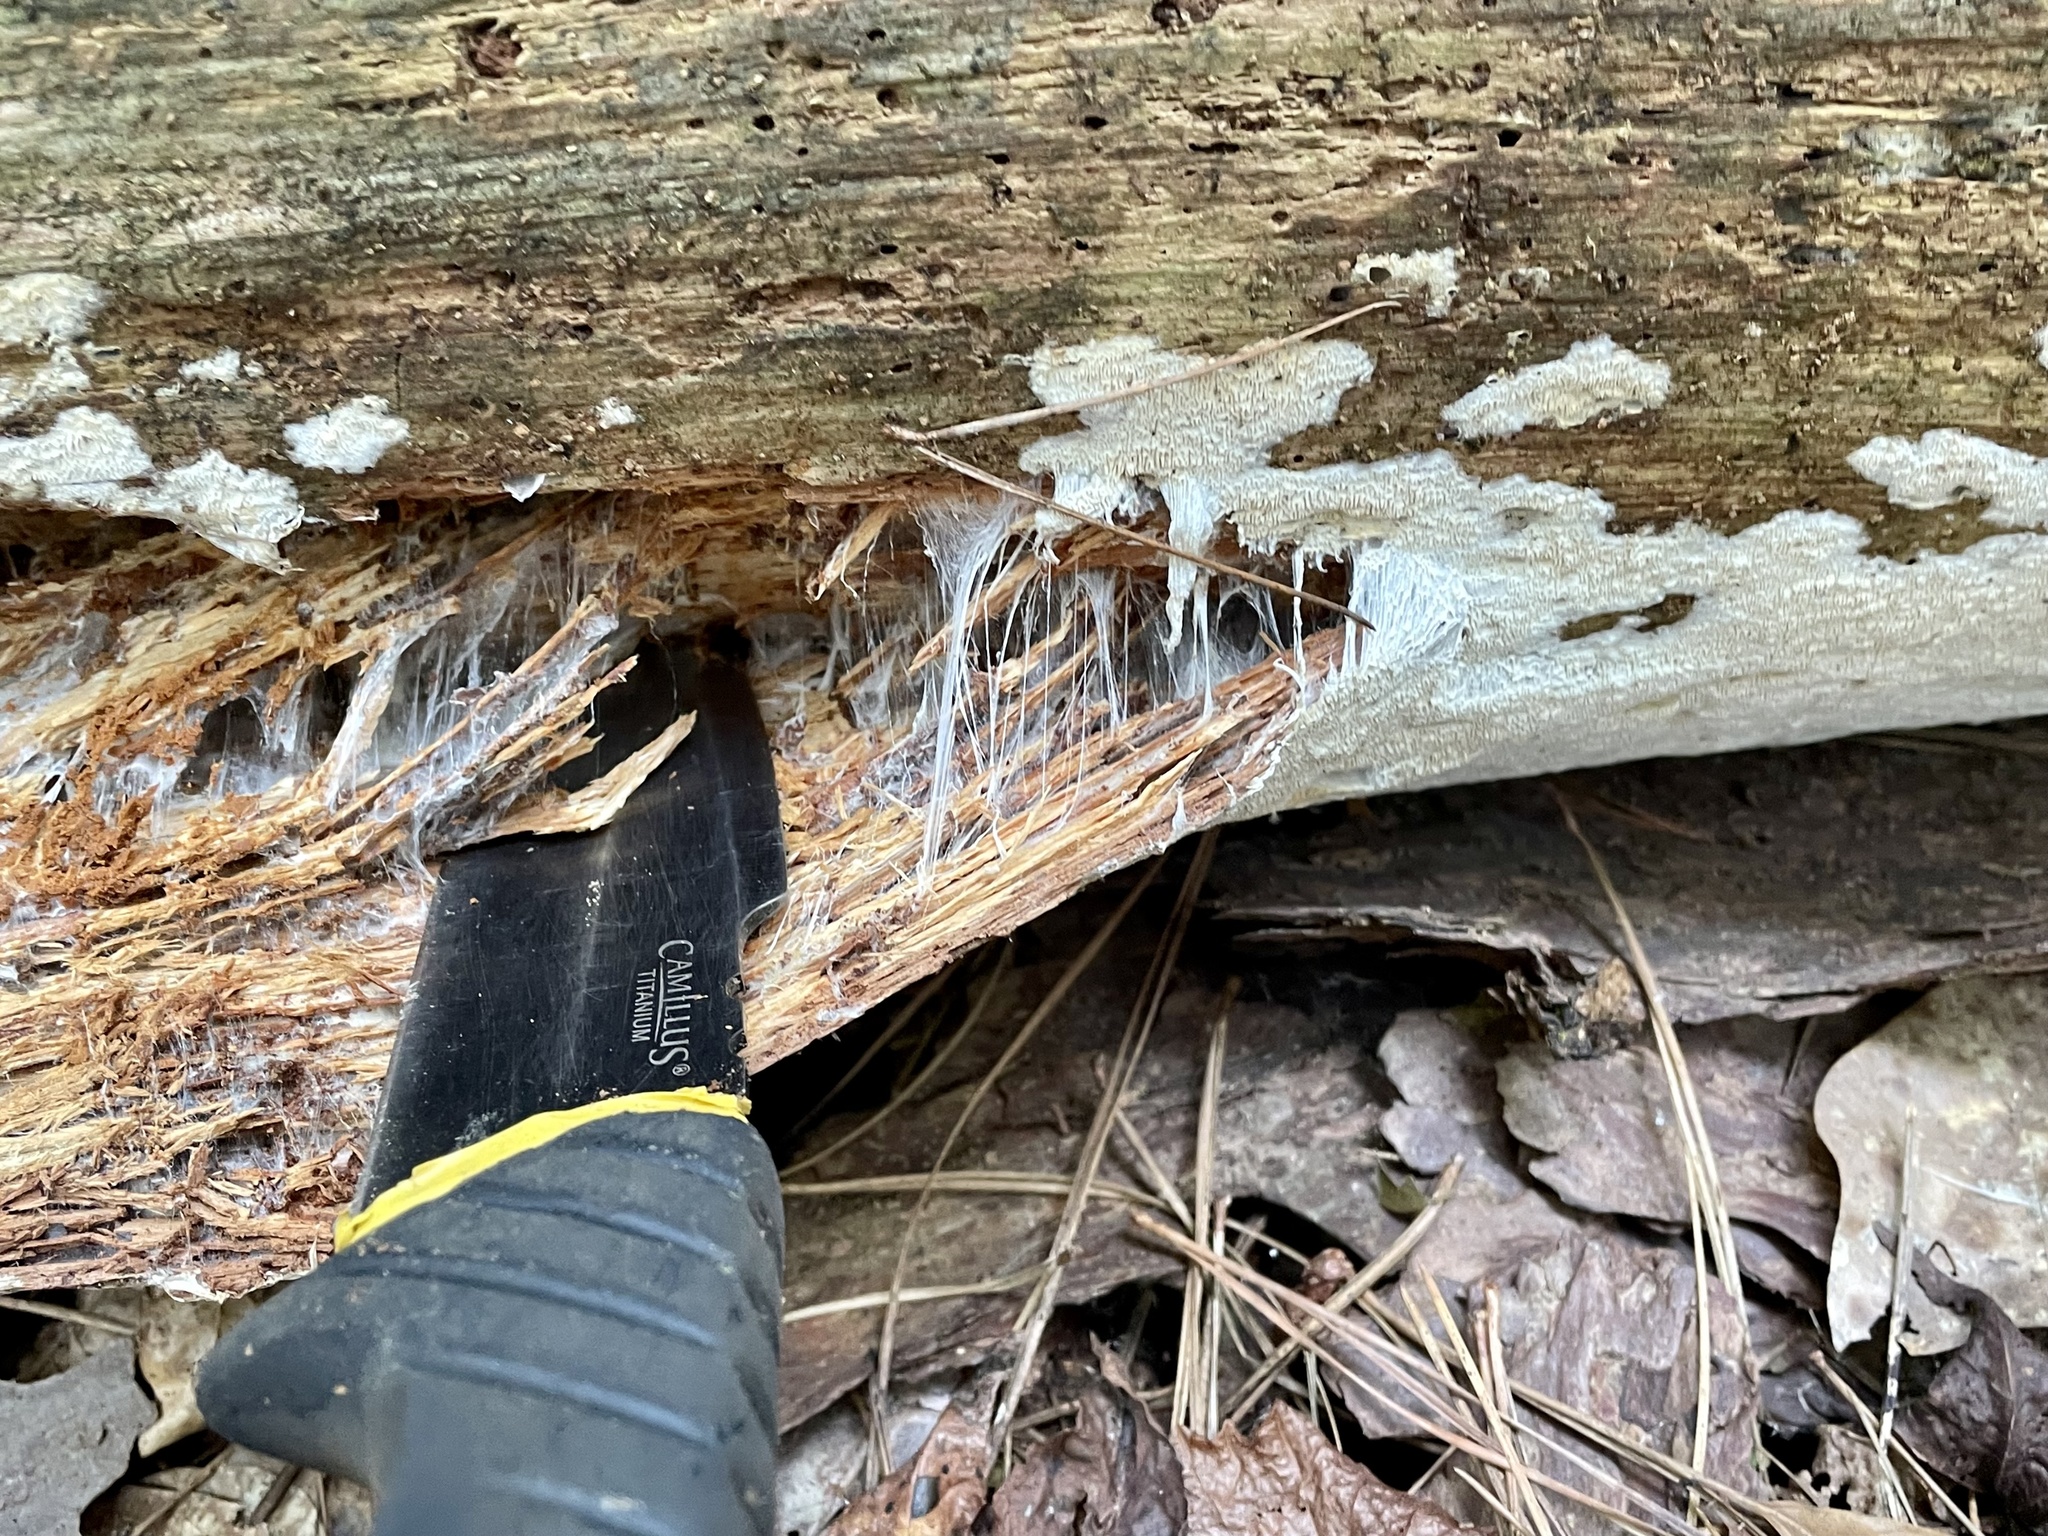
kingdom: Fungi
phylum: Basidiomycota
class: Agaricomycetes
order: Russulales
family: Bondarzewiaceae
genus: Wrightoporia
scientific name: Wrightoporia austrosinensis
